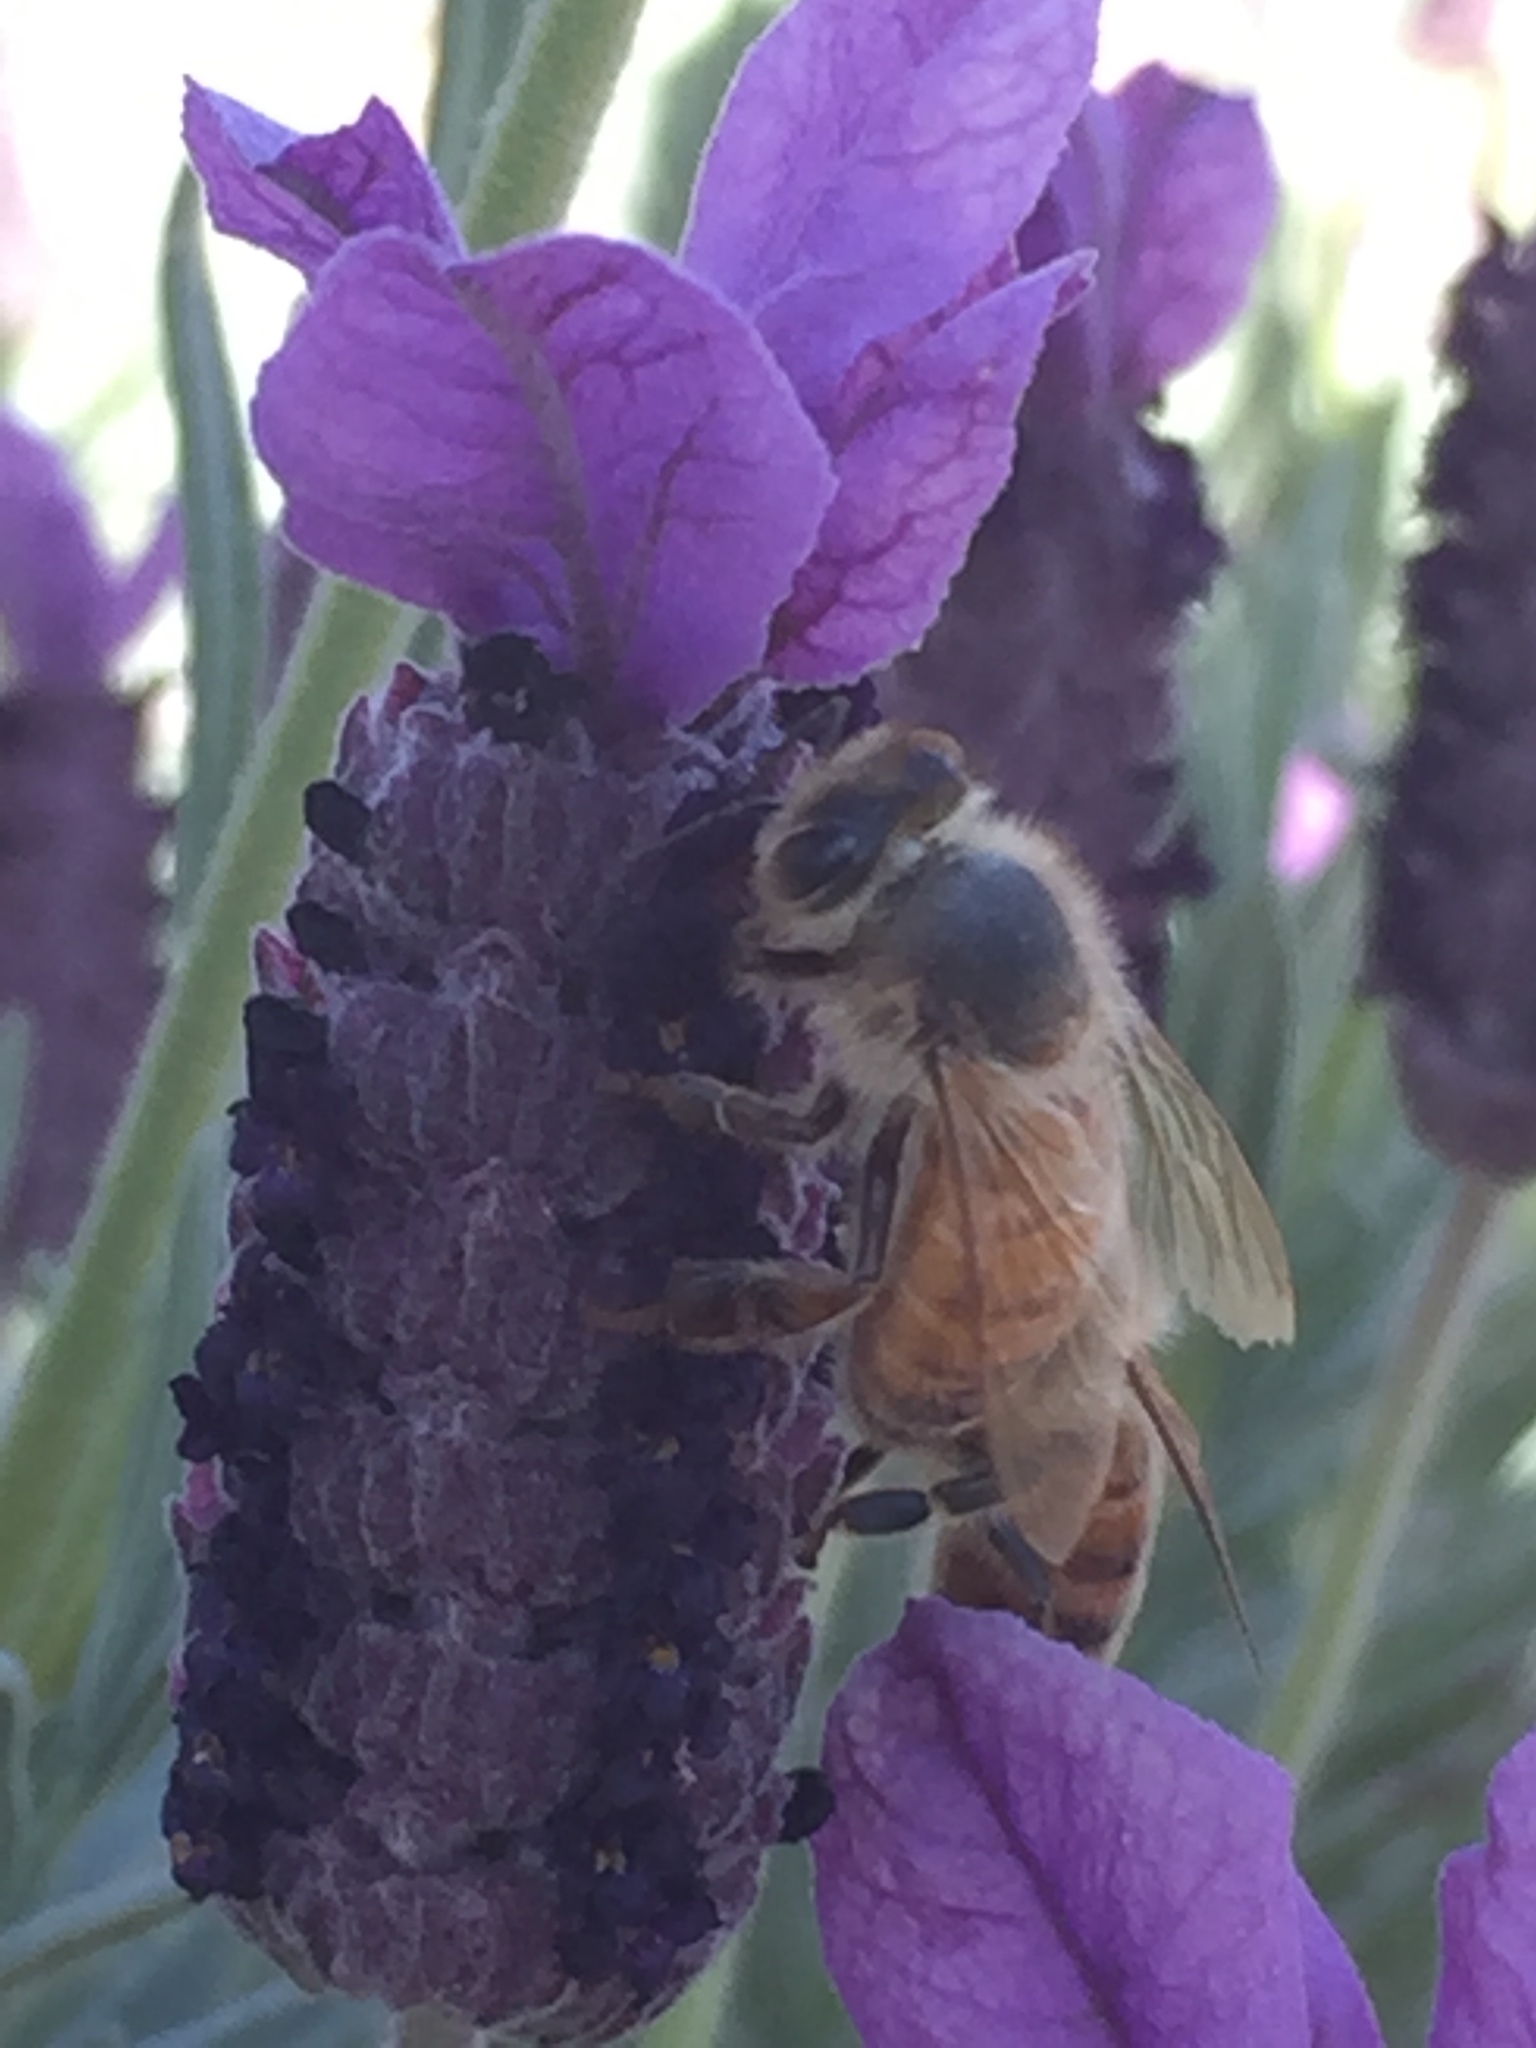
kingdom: Animalia
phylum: Arthropoda
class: Insecta
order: Hymenoptera
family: Apidae
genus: Apis
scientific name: Apis mellifera
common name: Honey bee
